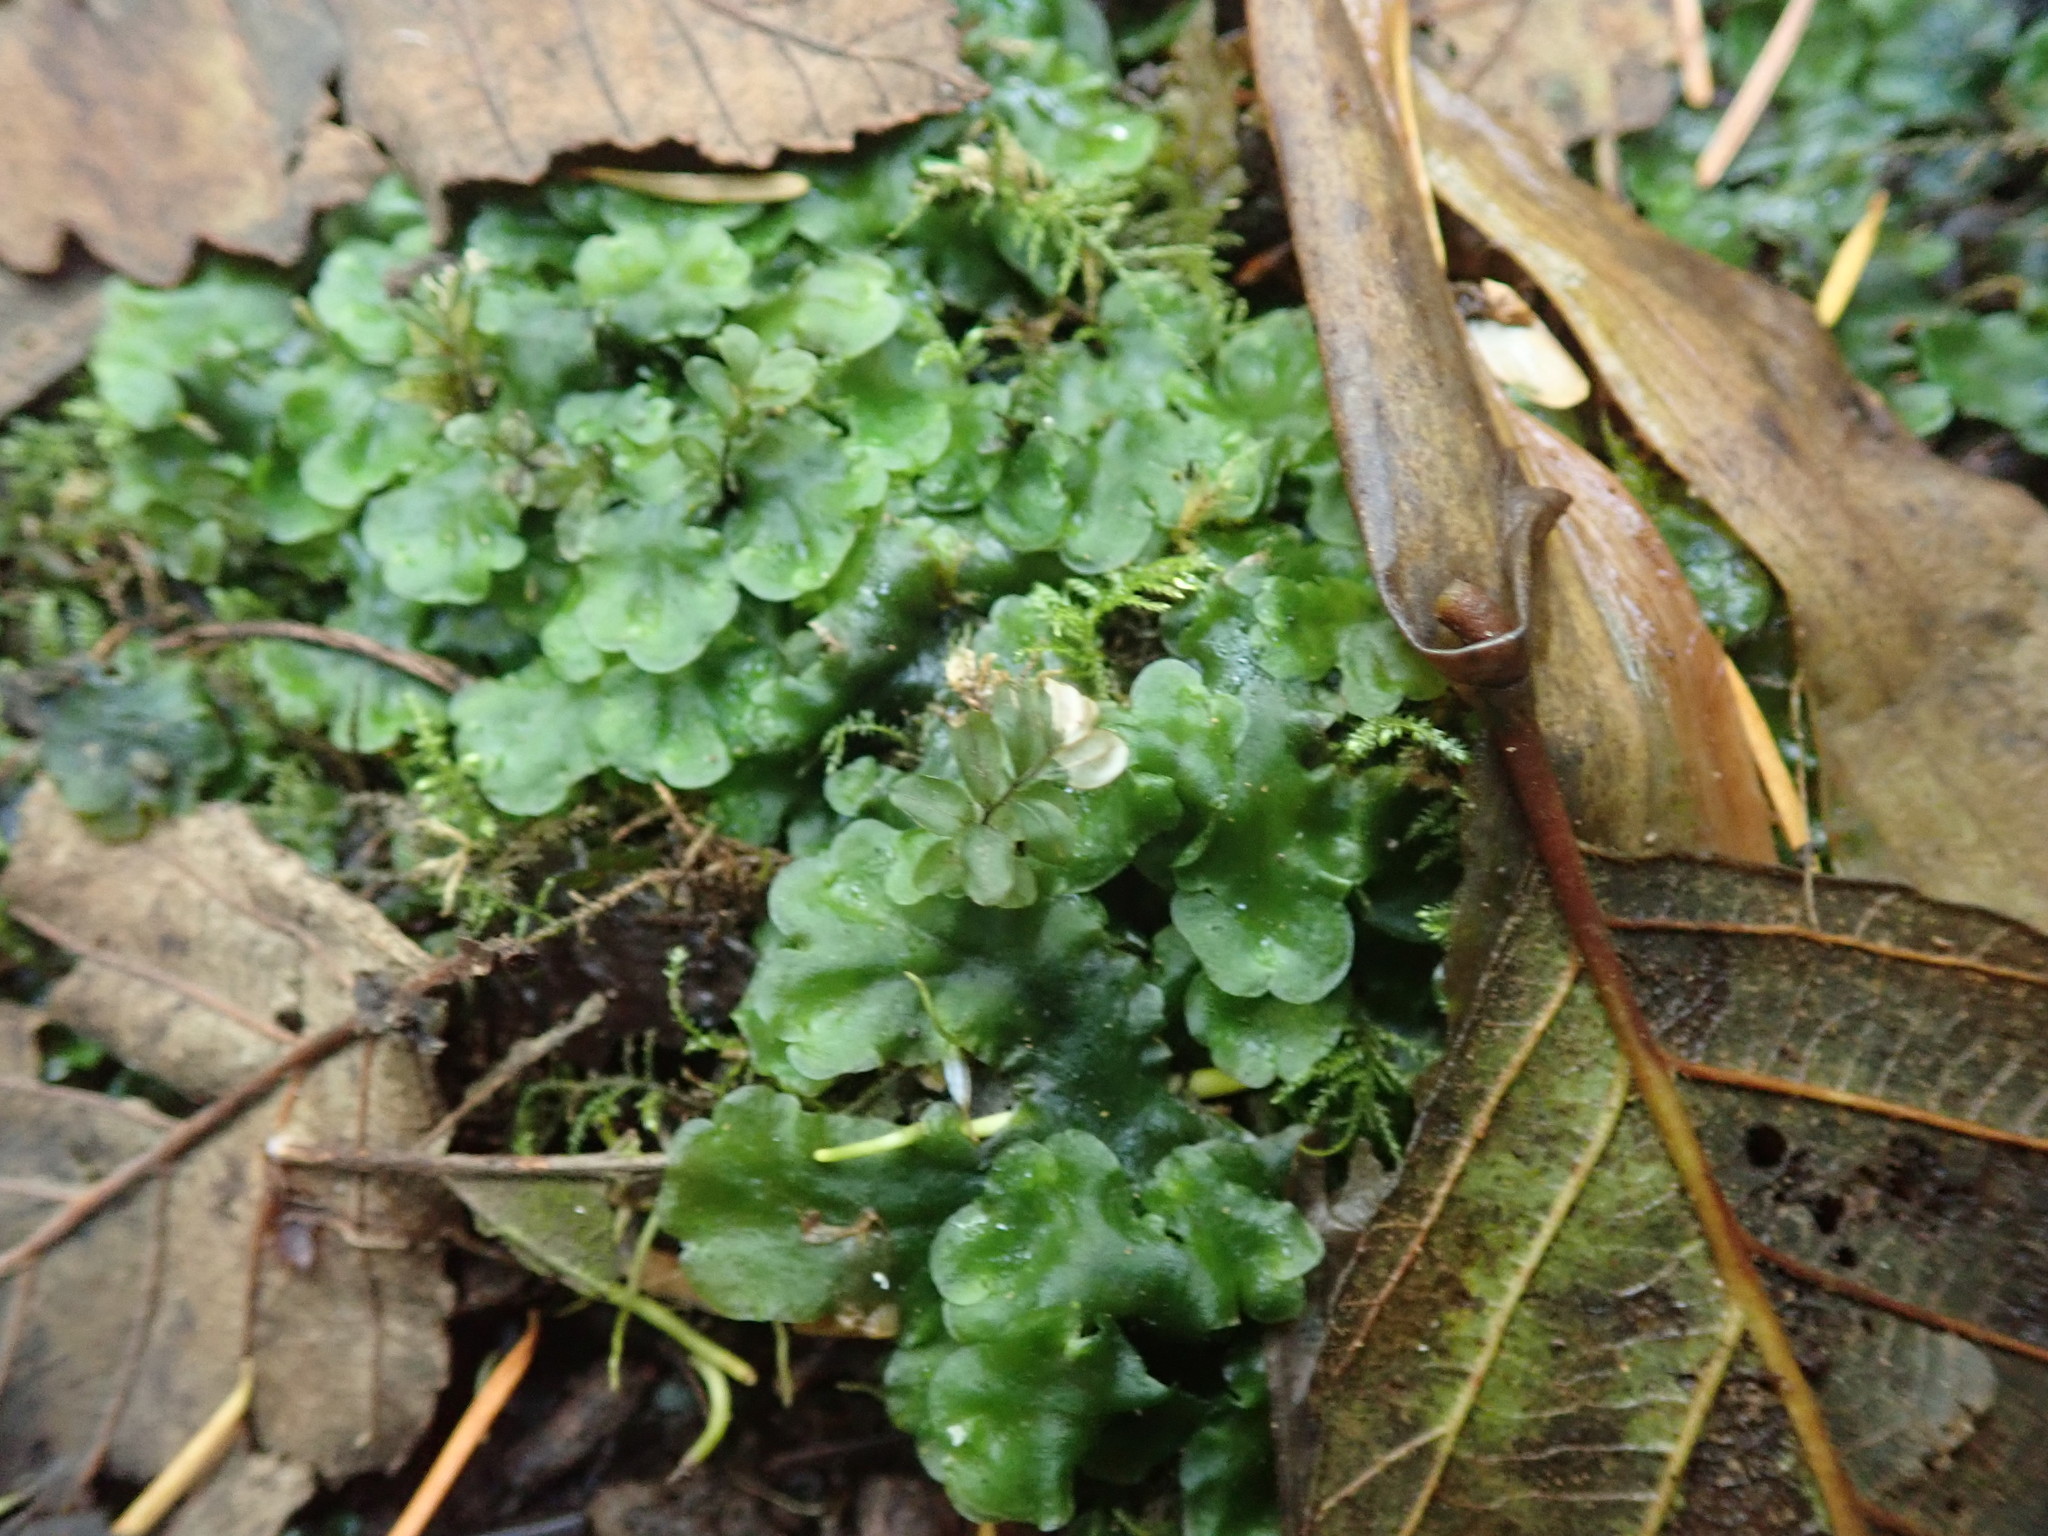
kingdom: Plantae
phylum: Marchantiophyta
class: Jungermanniopsida
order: Pelliales
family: Pelliaceae
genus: Pellia
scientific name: Pellia neesiana
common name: Nees  pellia
